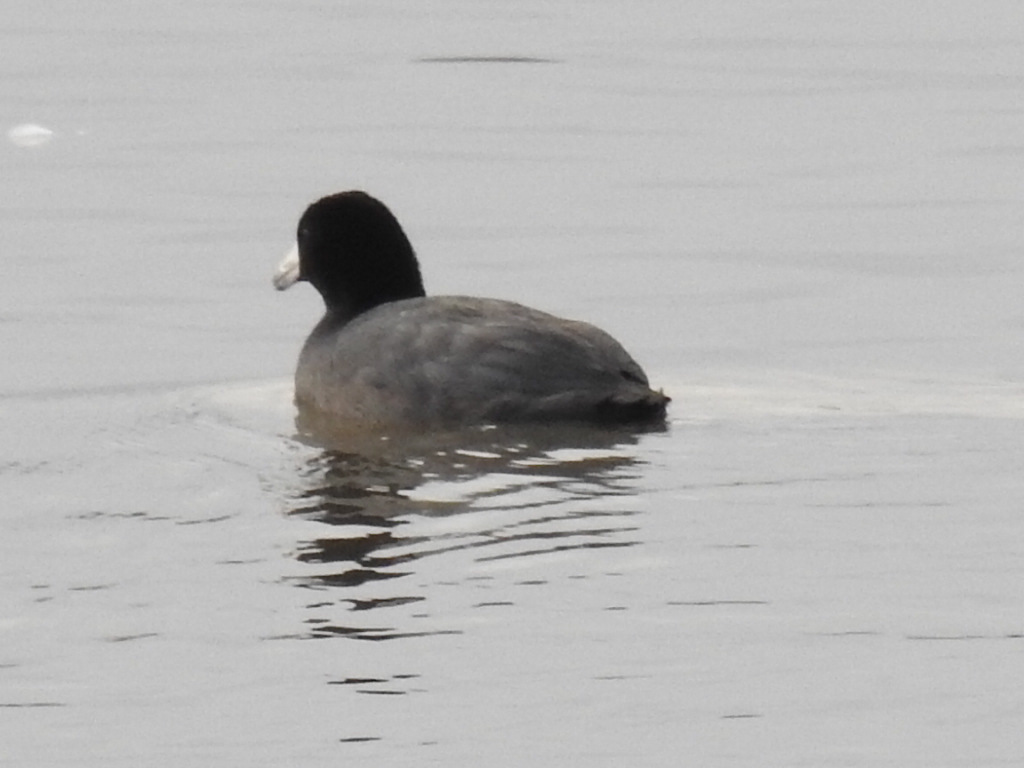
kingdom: Animalia
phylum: Chordata
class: Aves
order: Gruiformes
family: Rallidae
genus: Fulica
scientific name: Fulica americana
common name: American coot
